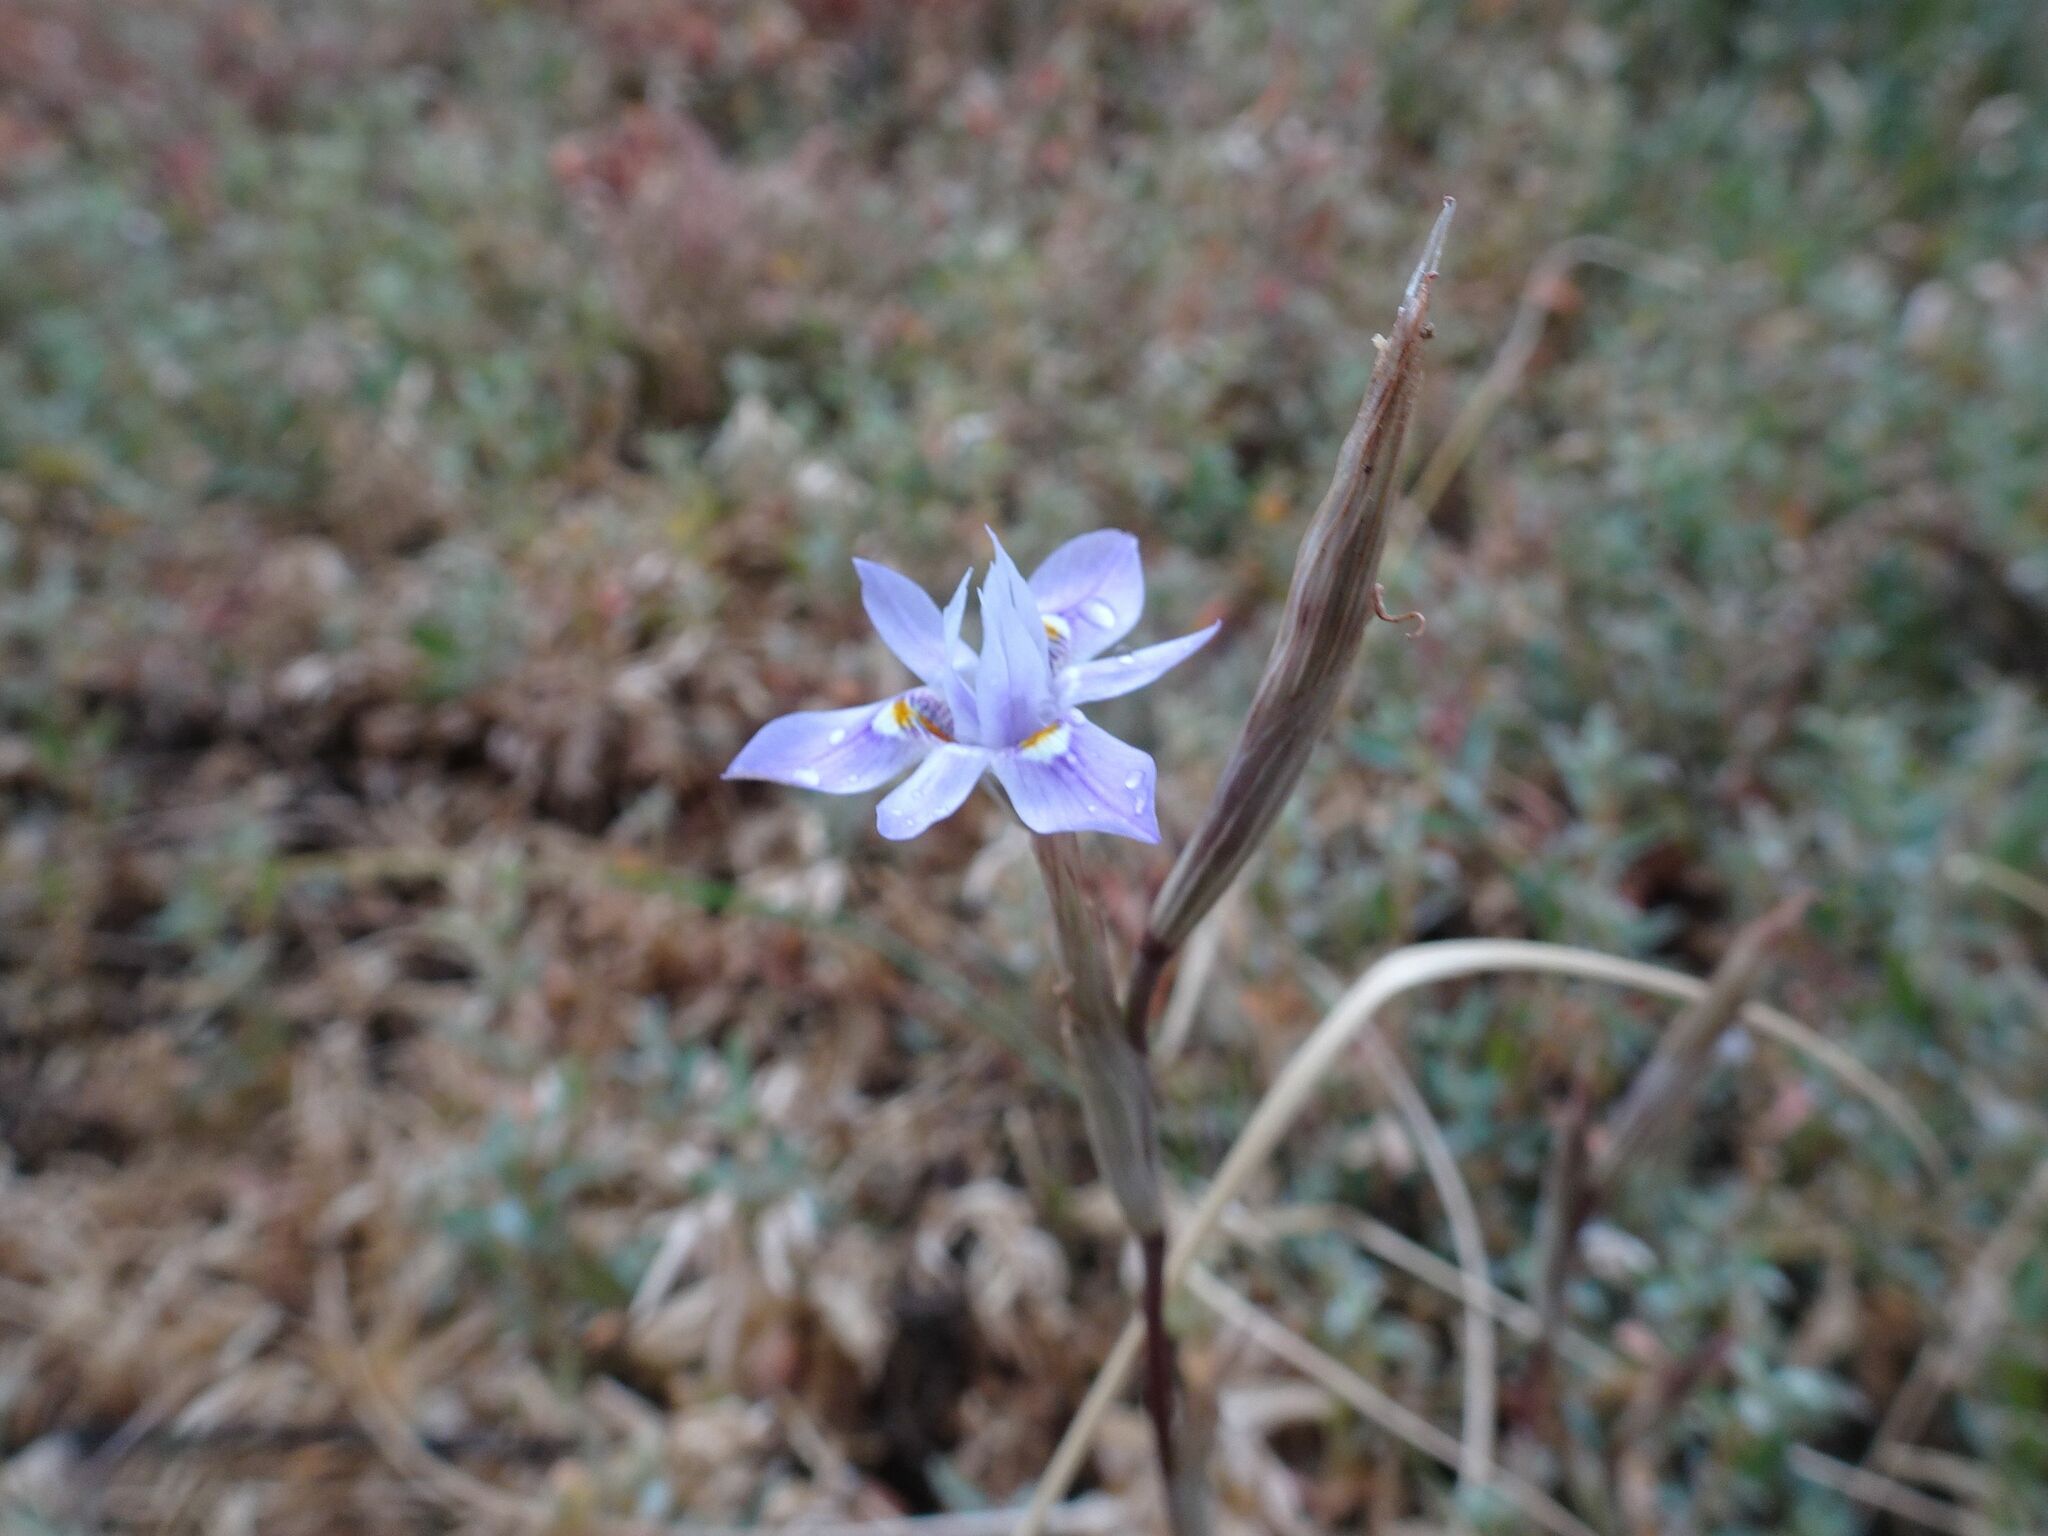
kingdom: Plantae
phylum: Tracheophyta
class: Liliopsida
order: Asparagales
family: Iridaceae
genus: Moraea
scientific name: Moraea setifolia
